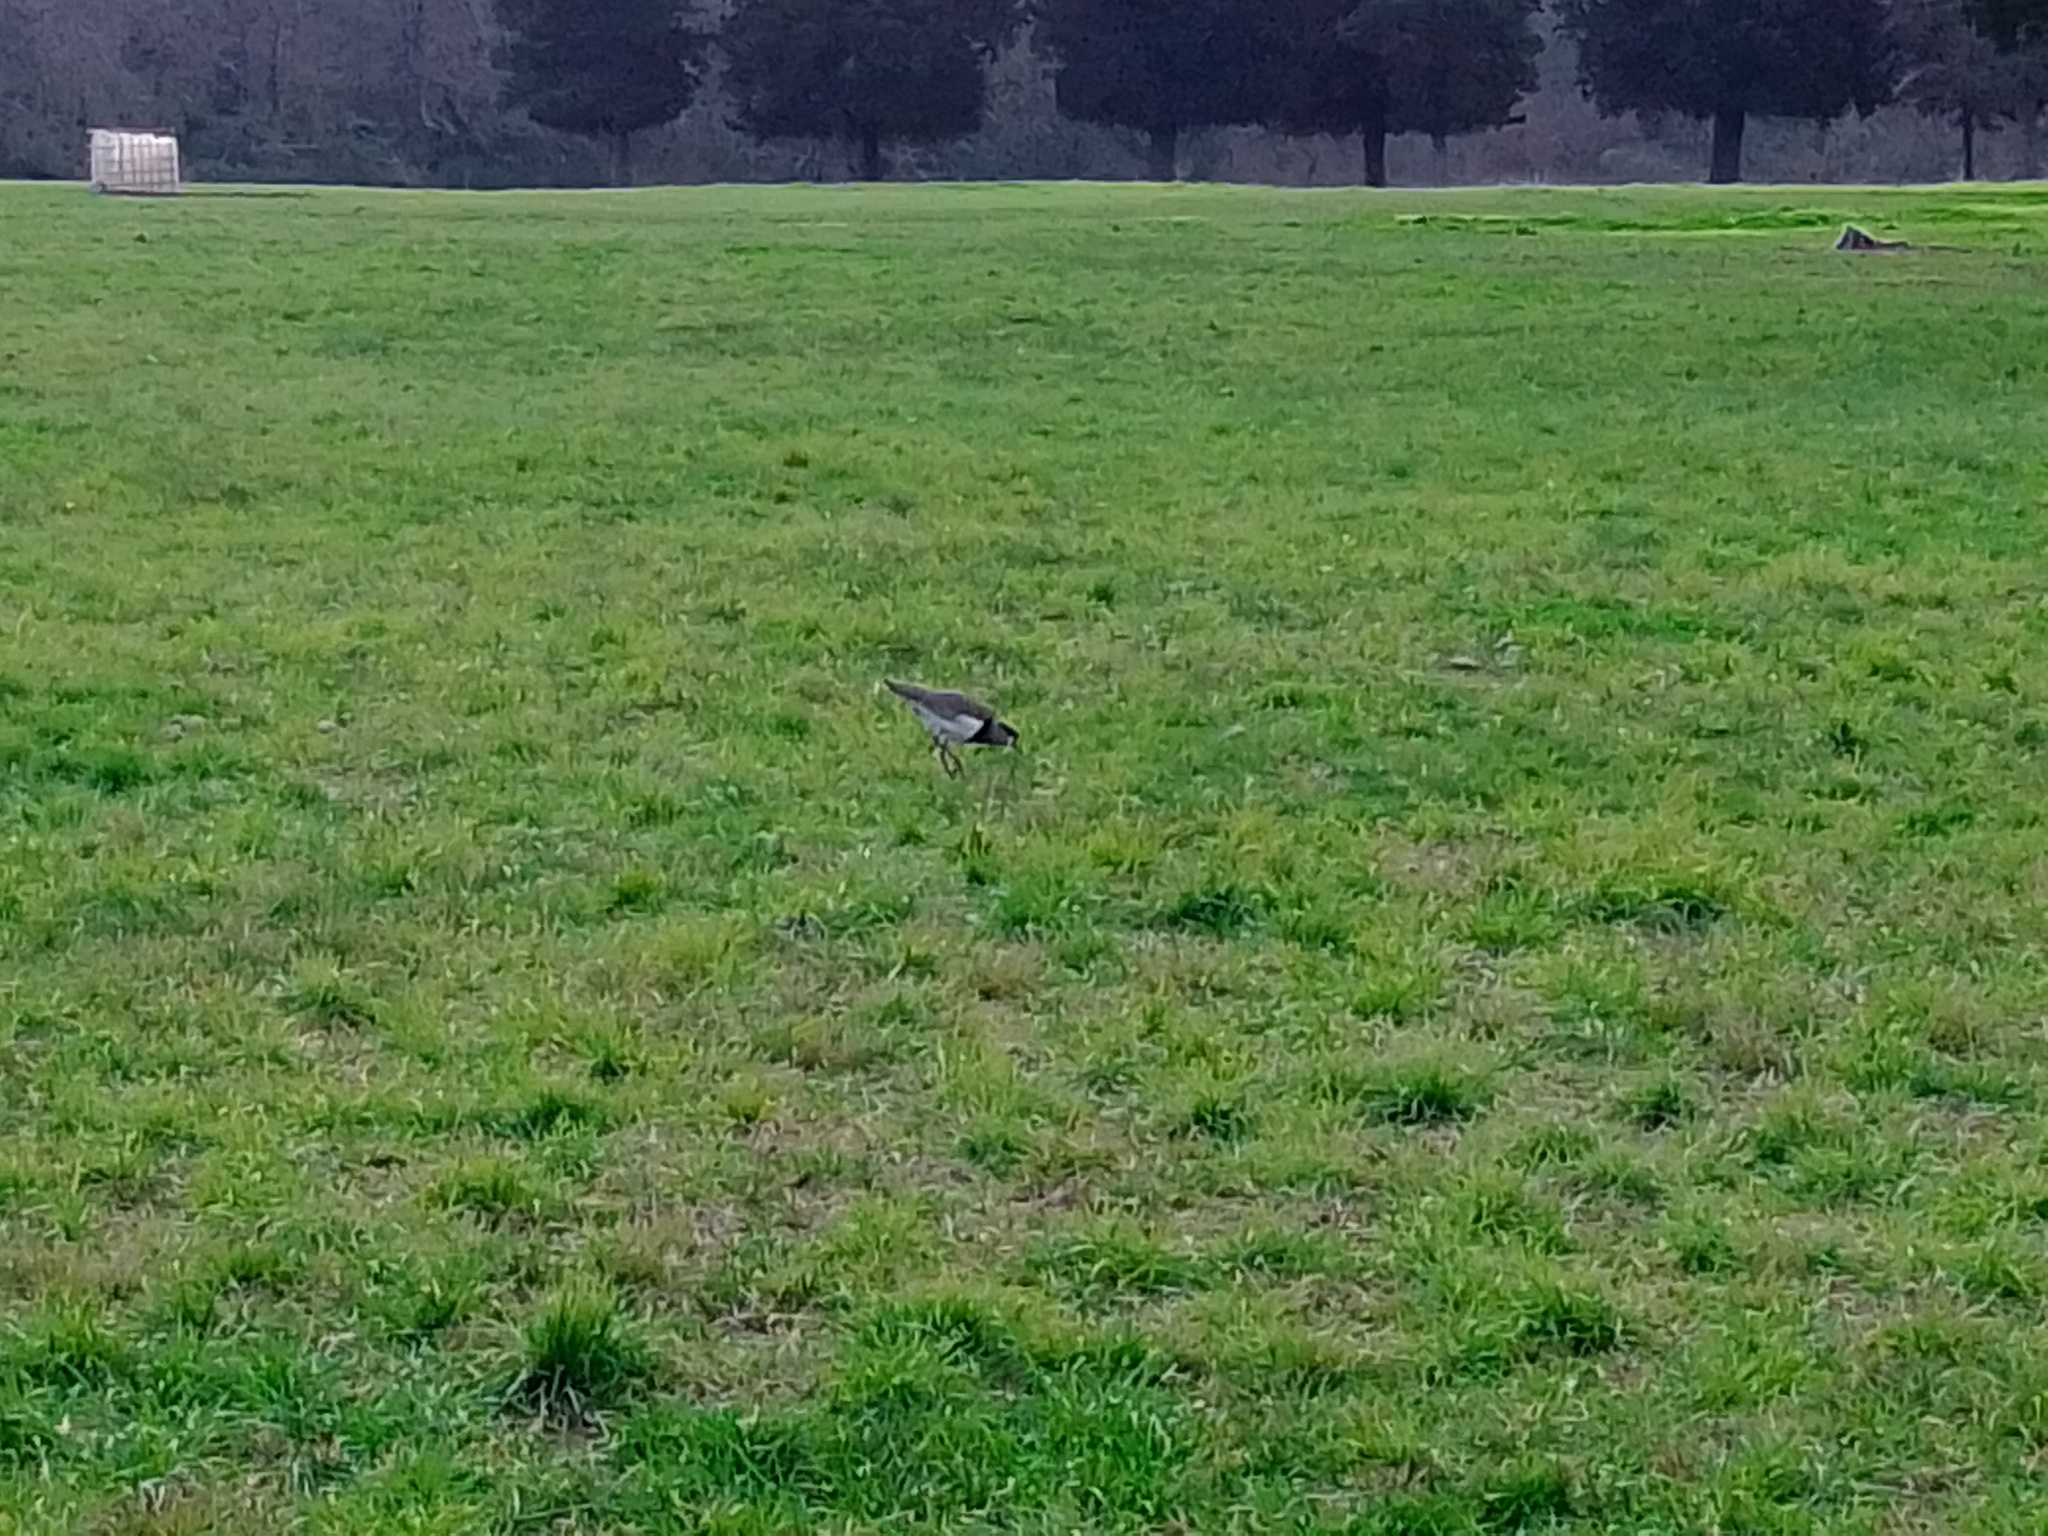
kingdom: Animalia
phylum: Chordata
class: Aves
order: Charadriiformes
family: Charadriidae
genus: Vanellus
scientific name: Vanellus chilensis
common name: Southern lapwing
